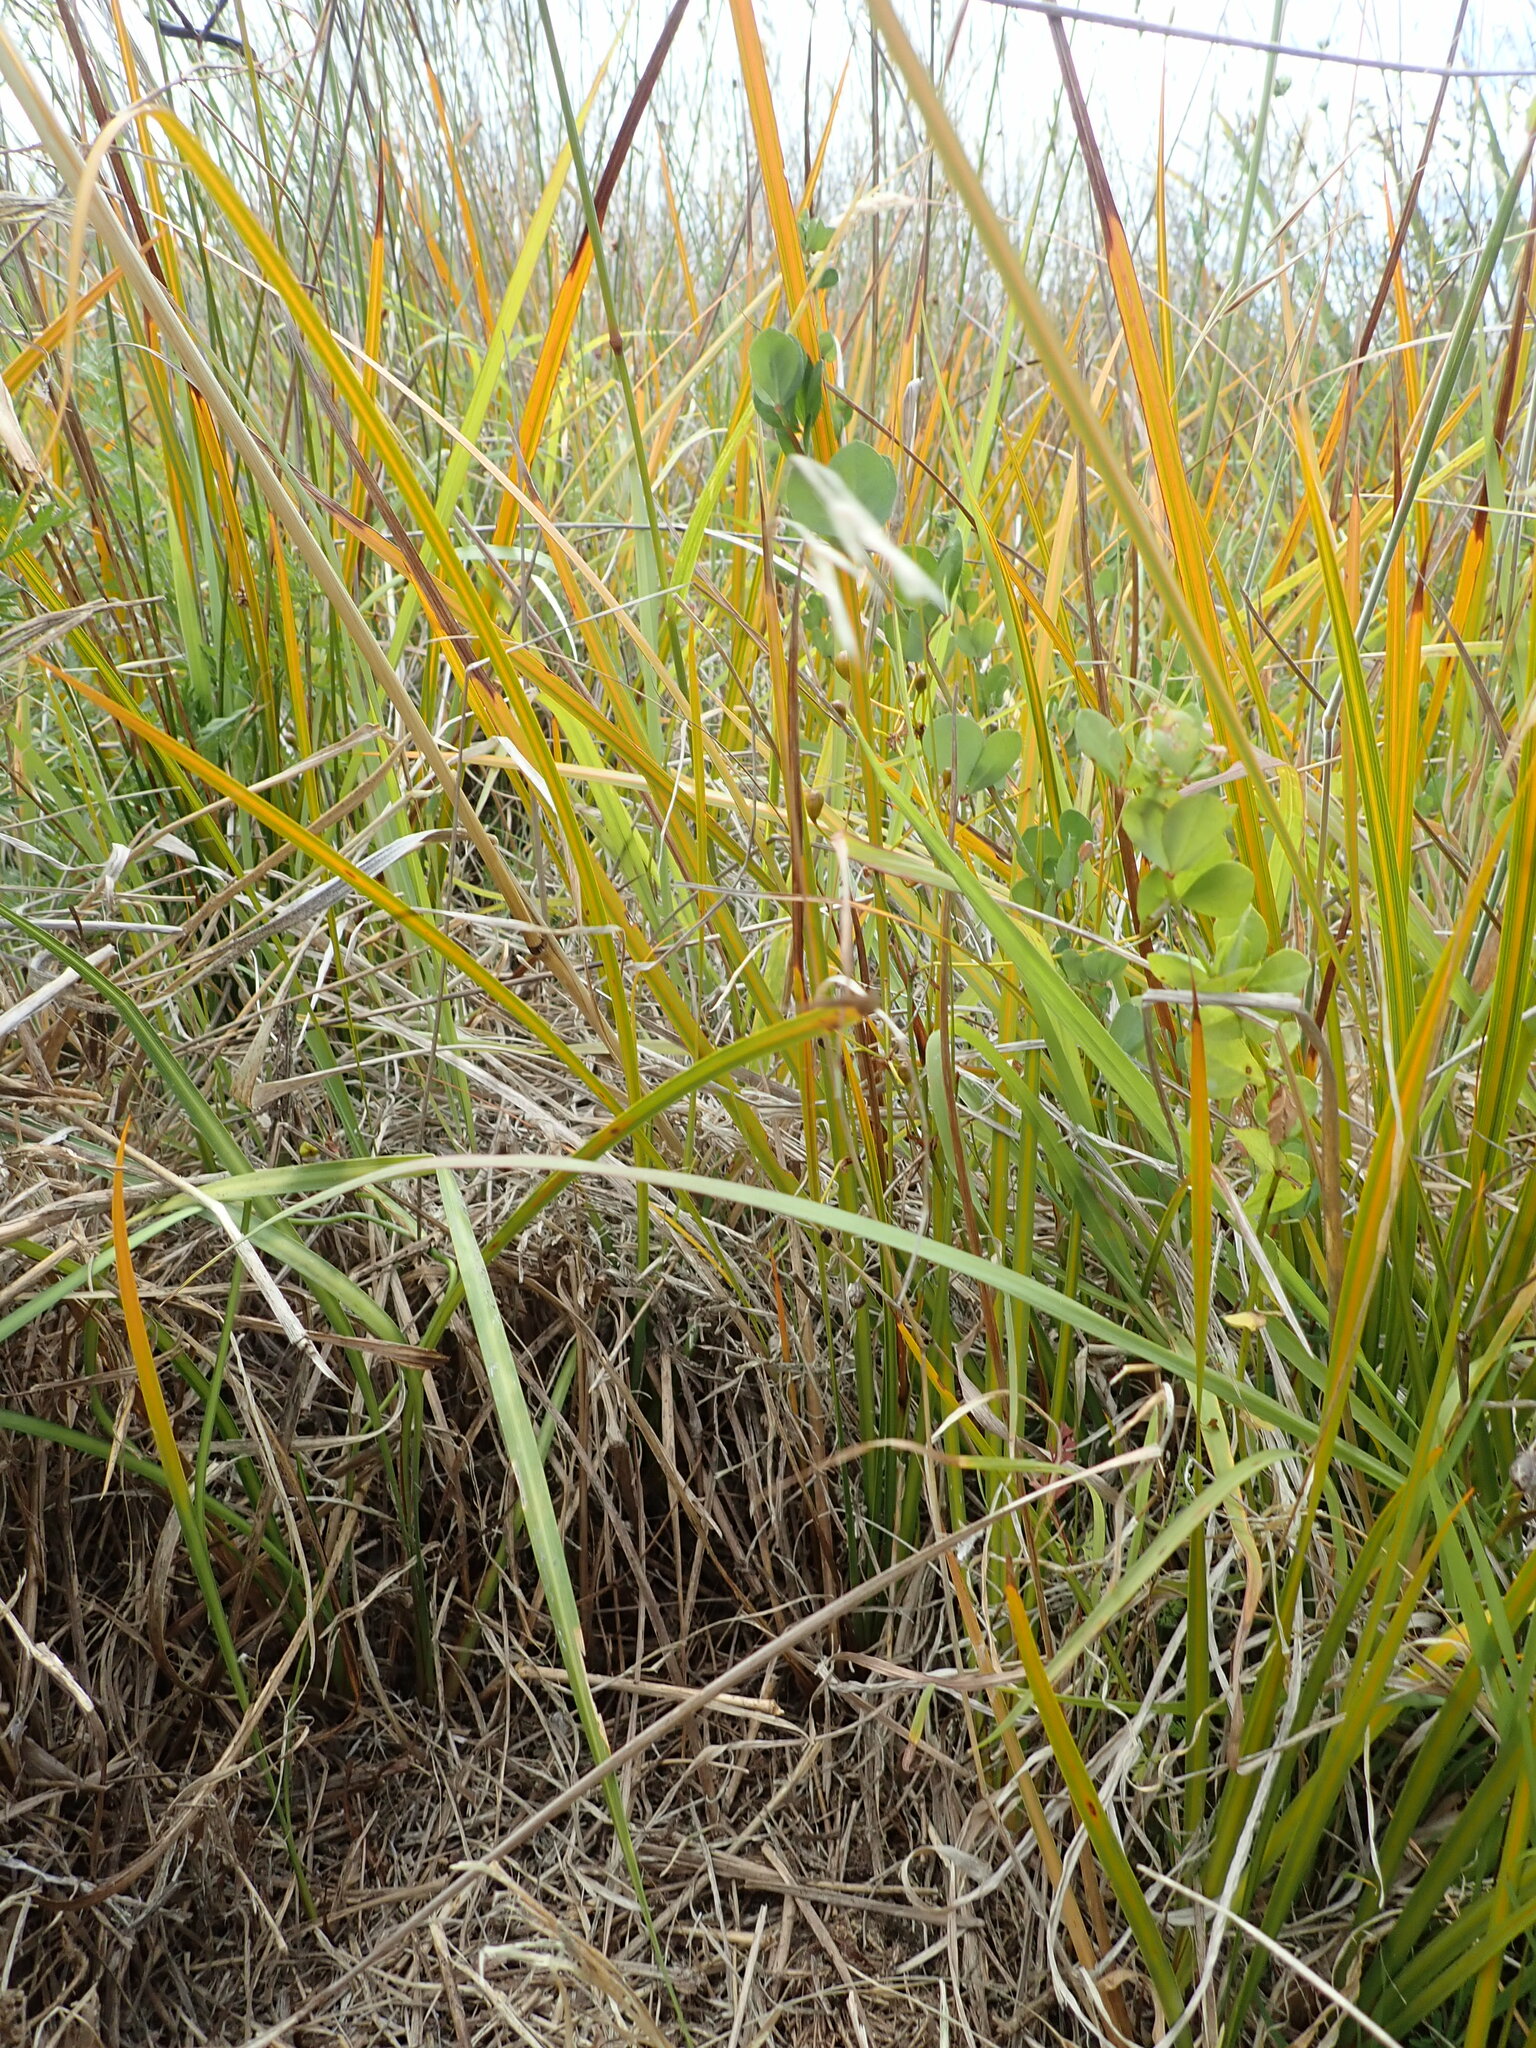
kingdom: Plantae
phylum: Tracheophyta
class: Liliopsida
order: Asparagales
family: Iridaceae
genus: Libertia
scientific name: Libertia peregrinans
